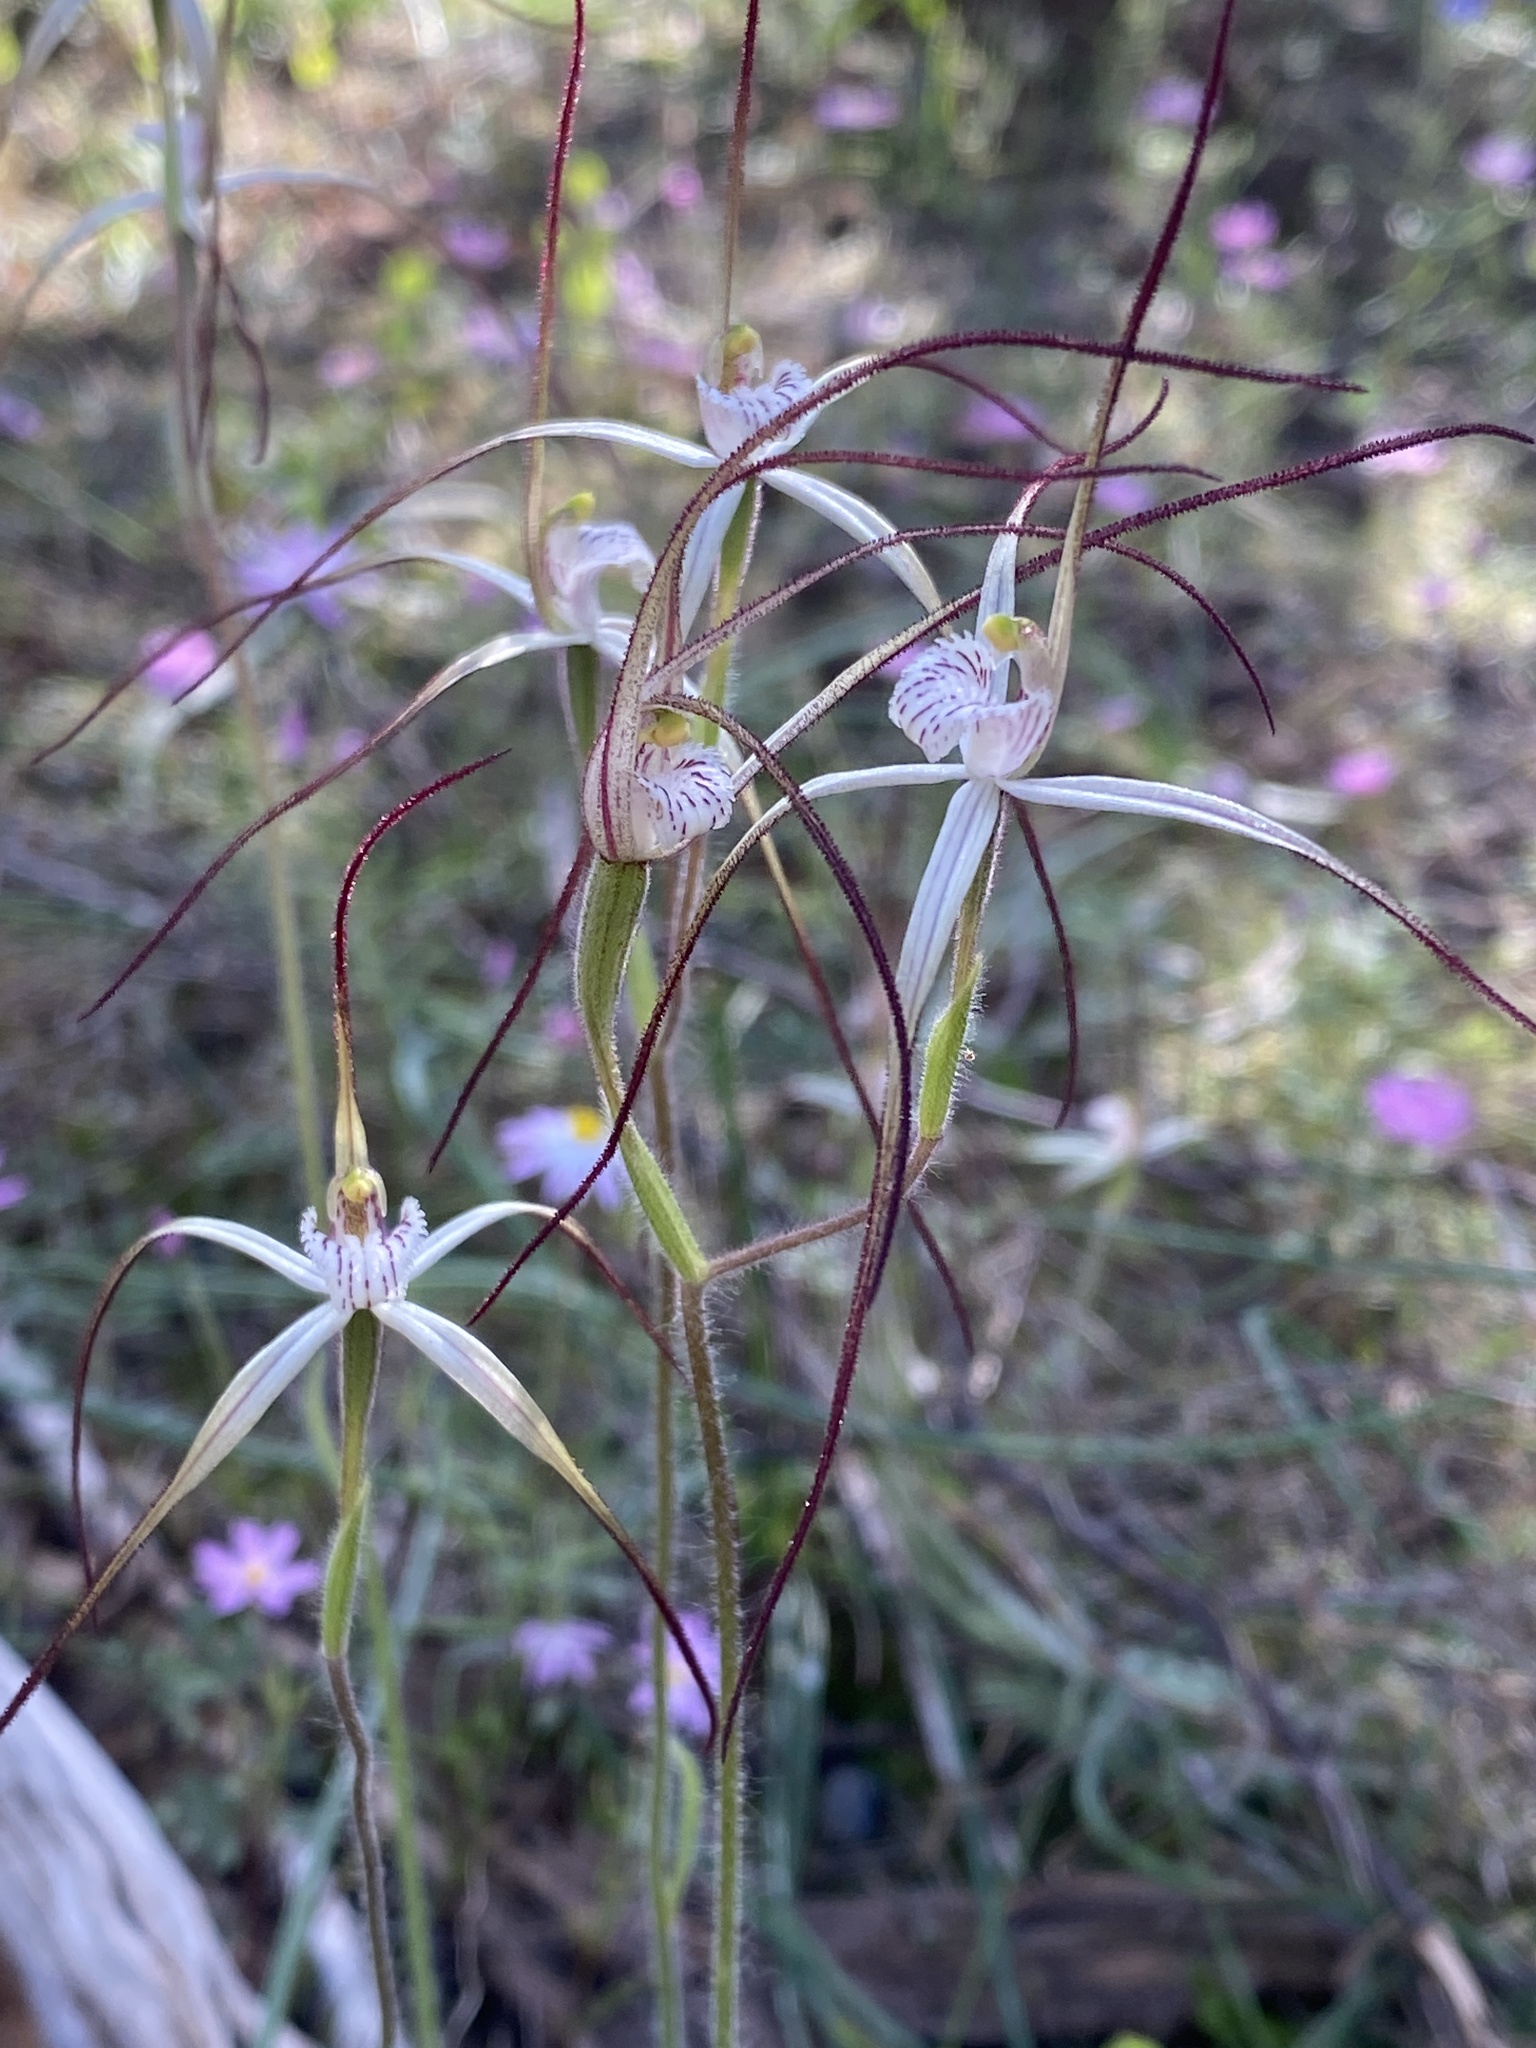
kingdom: Plantae
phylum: Tracheophyta
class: Liliopsida
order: Asparagales
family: Orchidaceae
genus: Caladenia
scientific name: Caladenia varians
